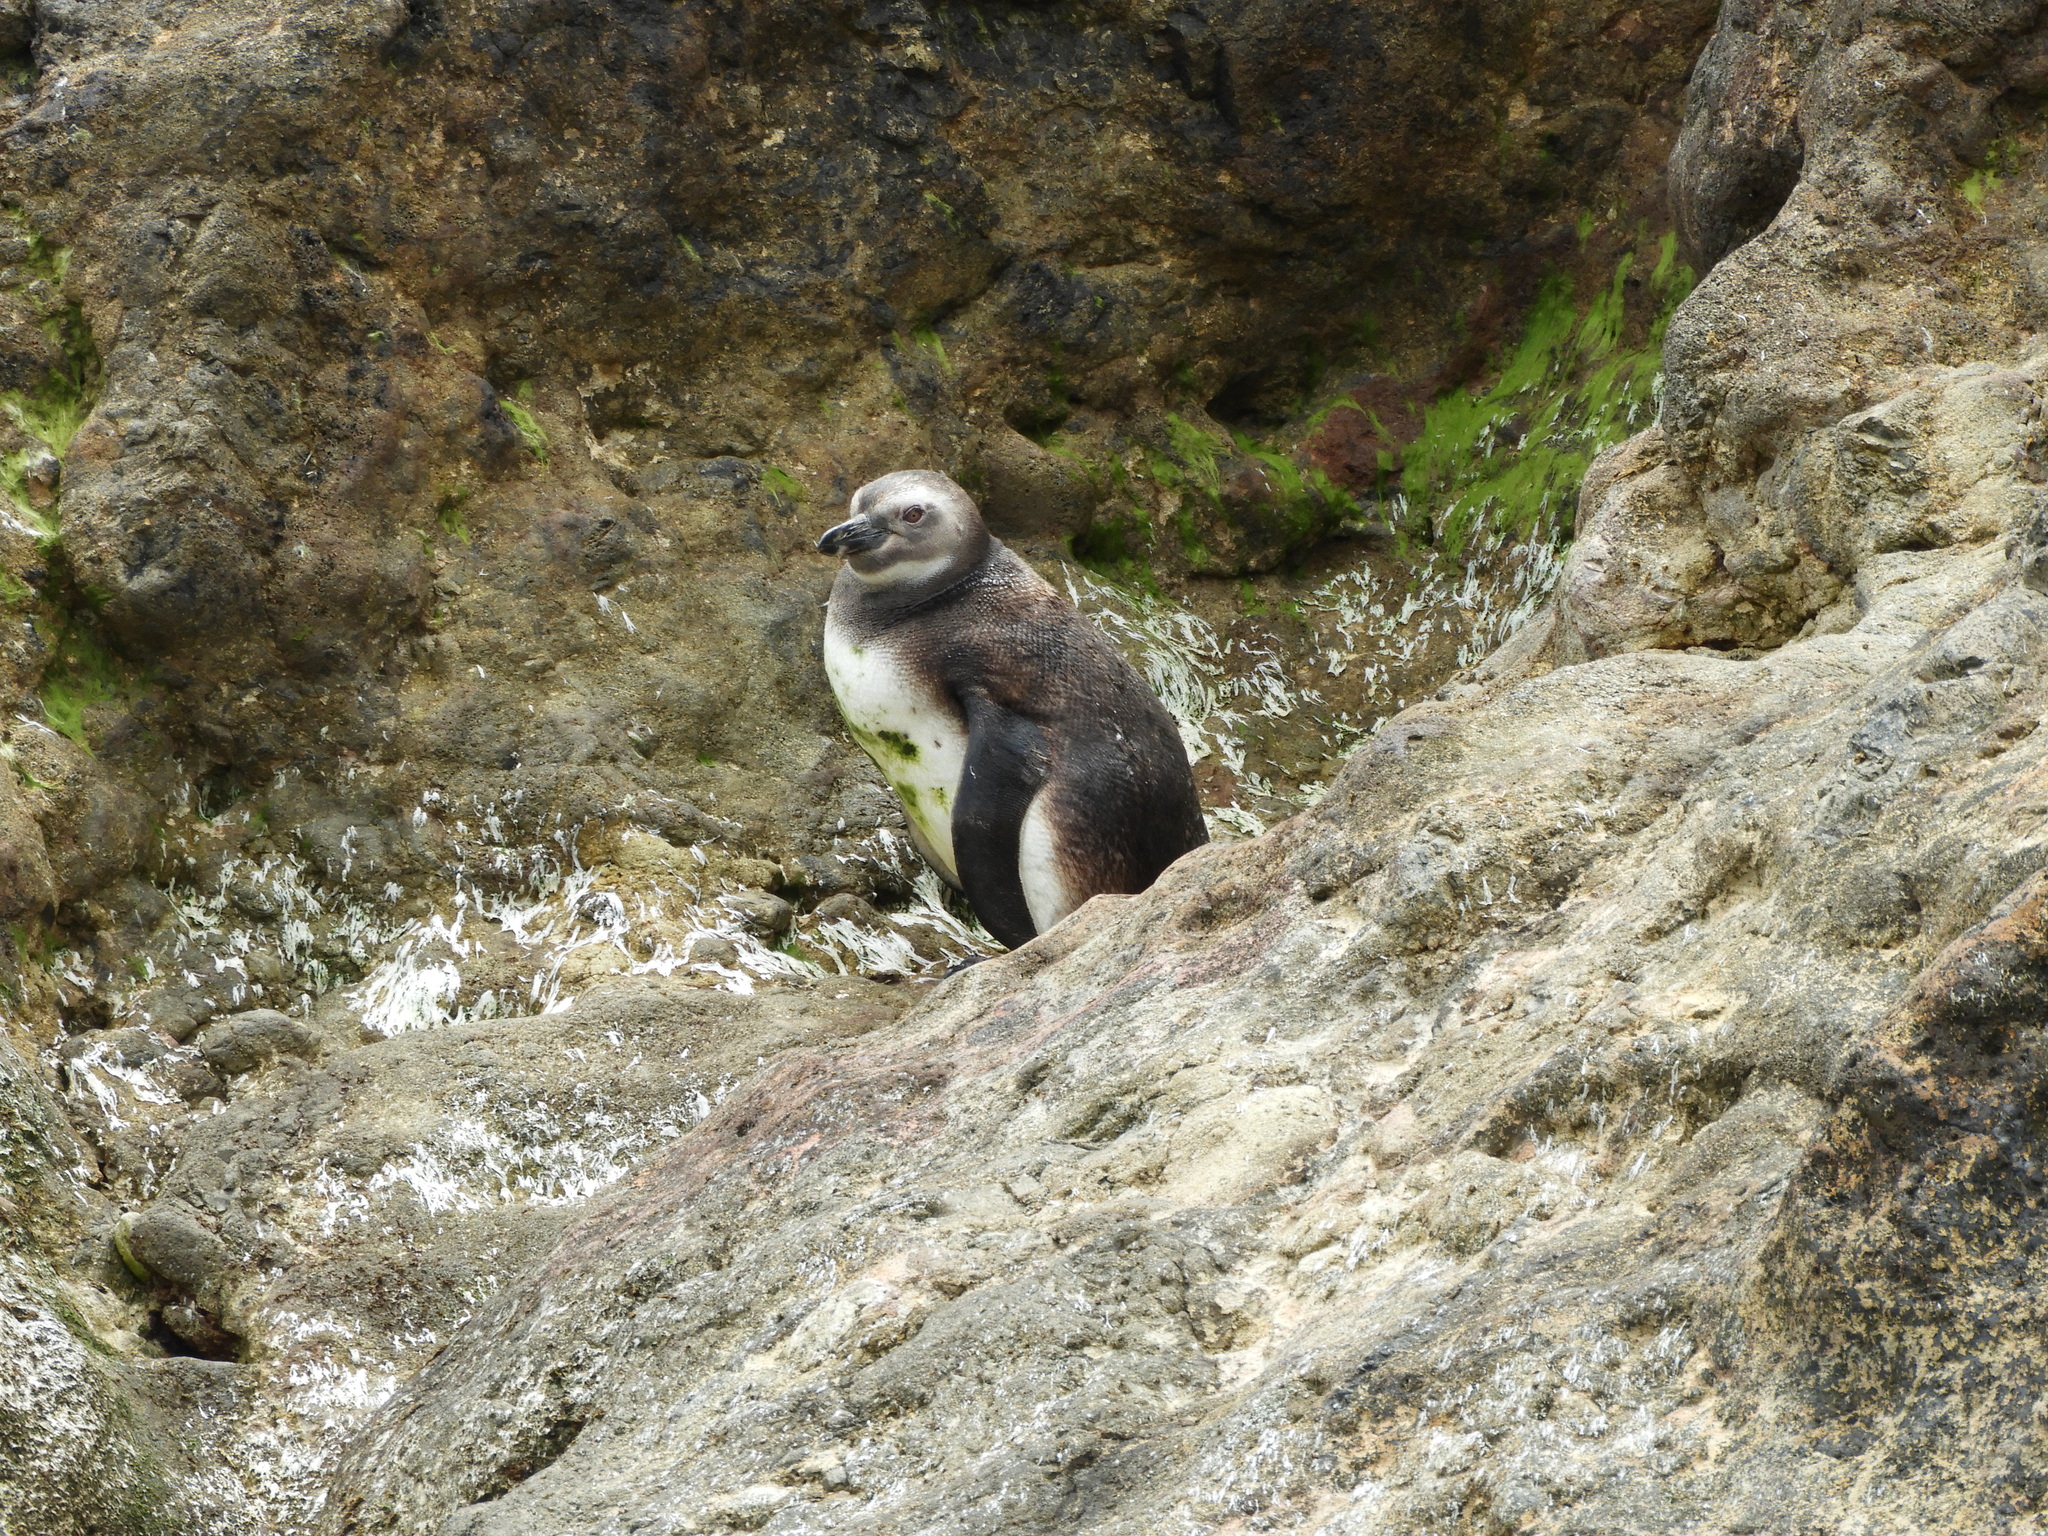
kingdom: Animalia
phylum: Chordata
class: Aves
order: Sphenisciformes
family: Spheniscidae
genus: Spheniscus
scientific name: Spheniscus magellanicus
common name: Magellanic penguin
